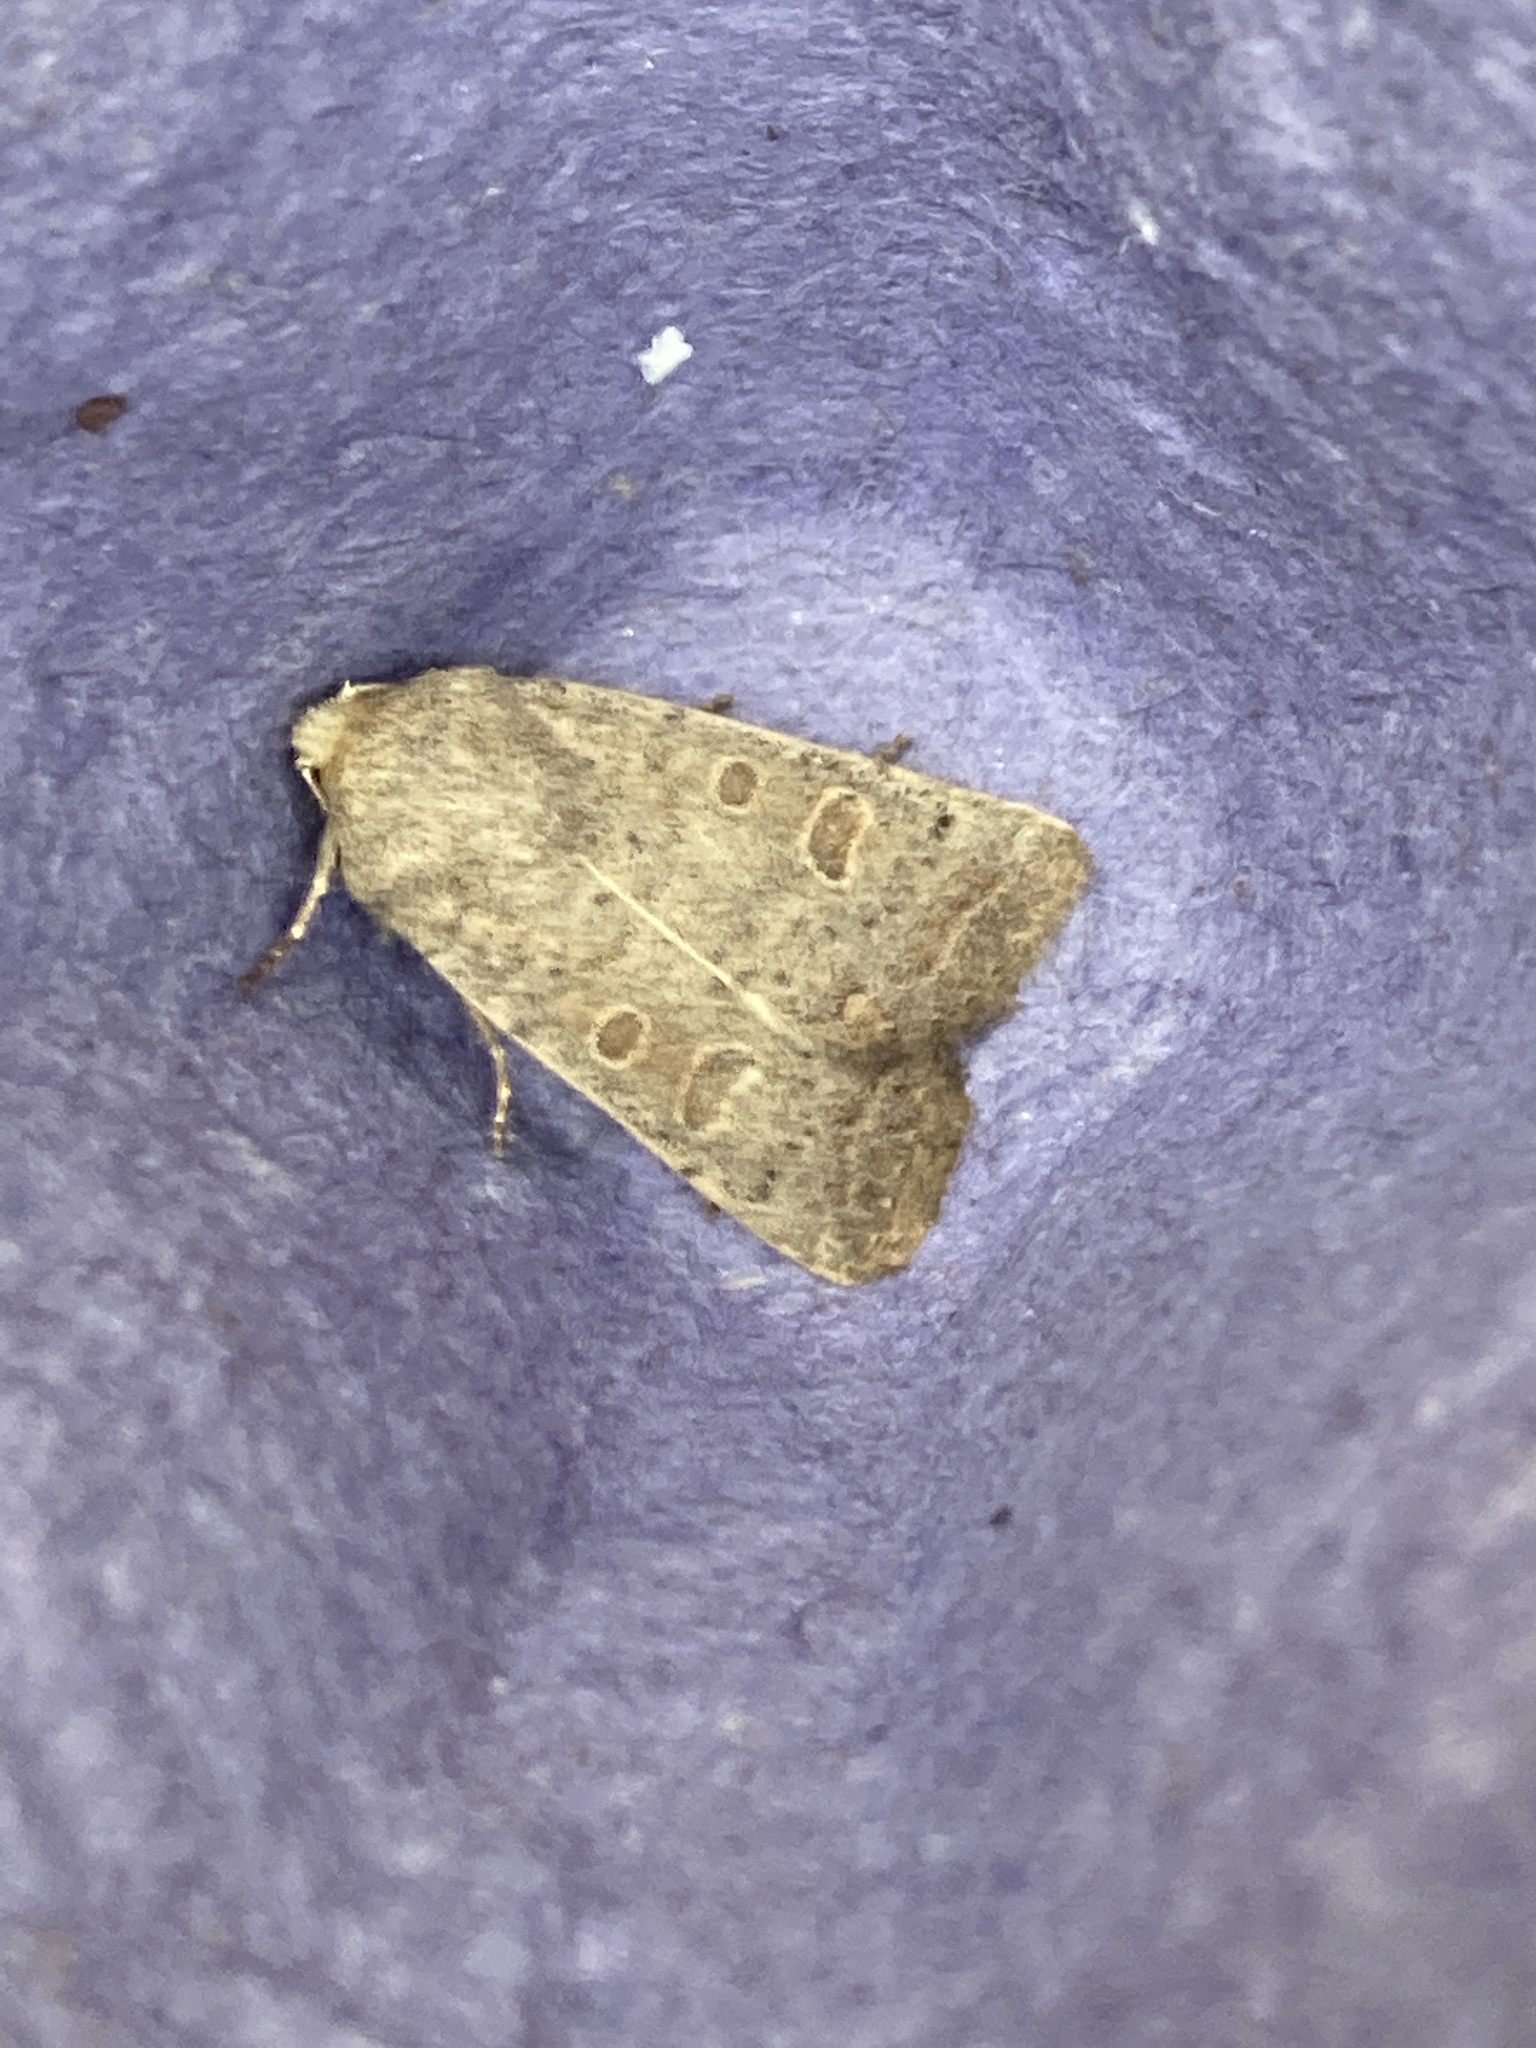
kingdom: Animalia
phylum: Arthropoda
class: Insecta
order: Lepidoptera
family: Noctuidae
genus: Hoplodrina
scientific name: Hoplodrina ambigua
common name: Vine's rustic
